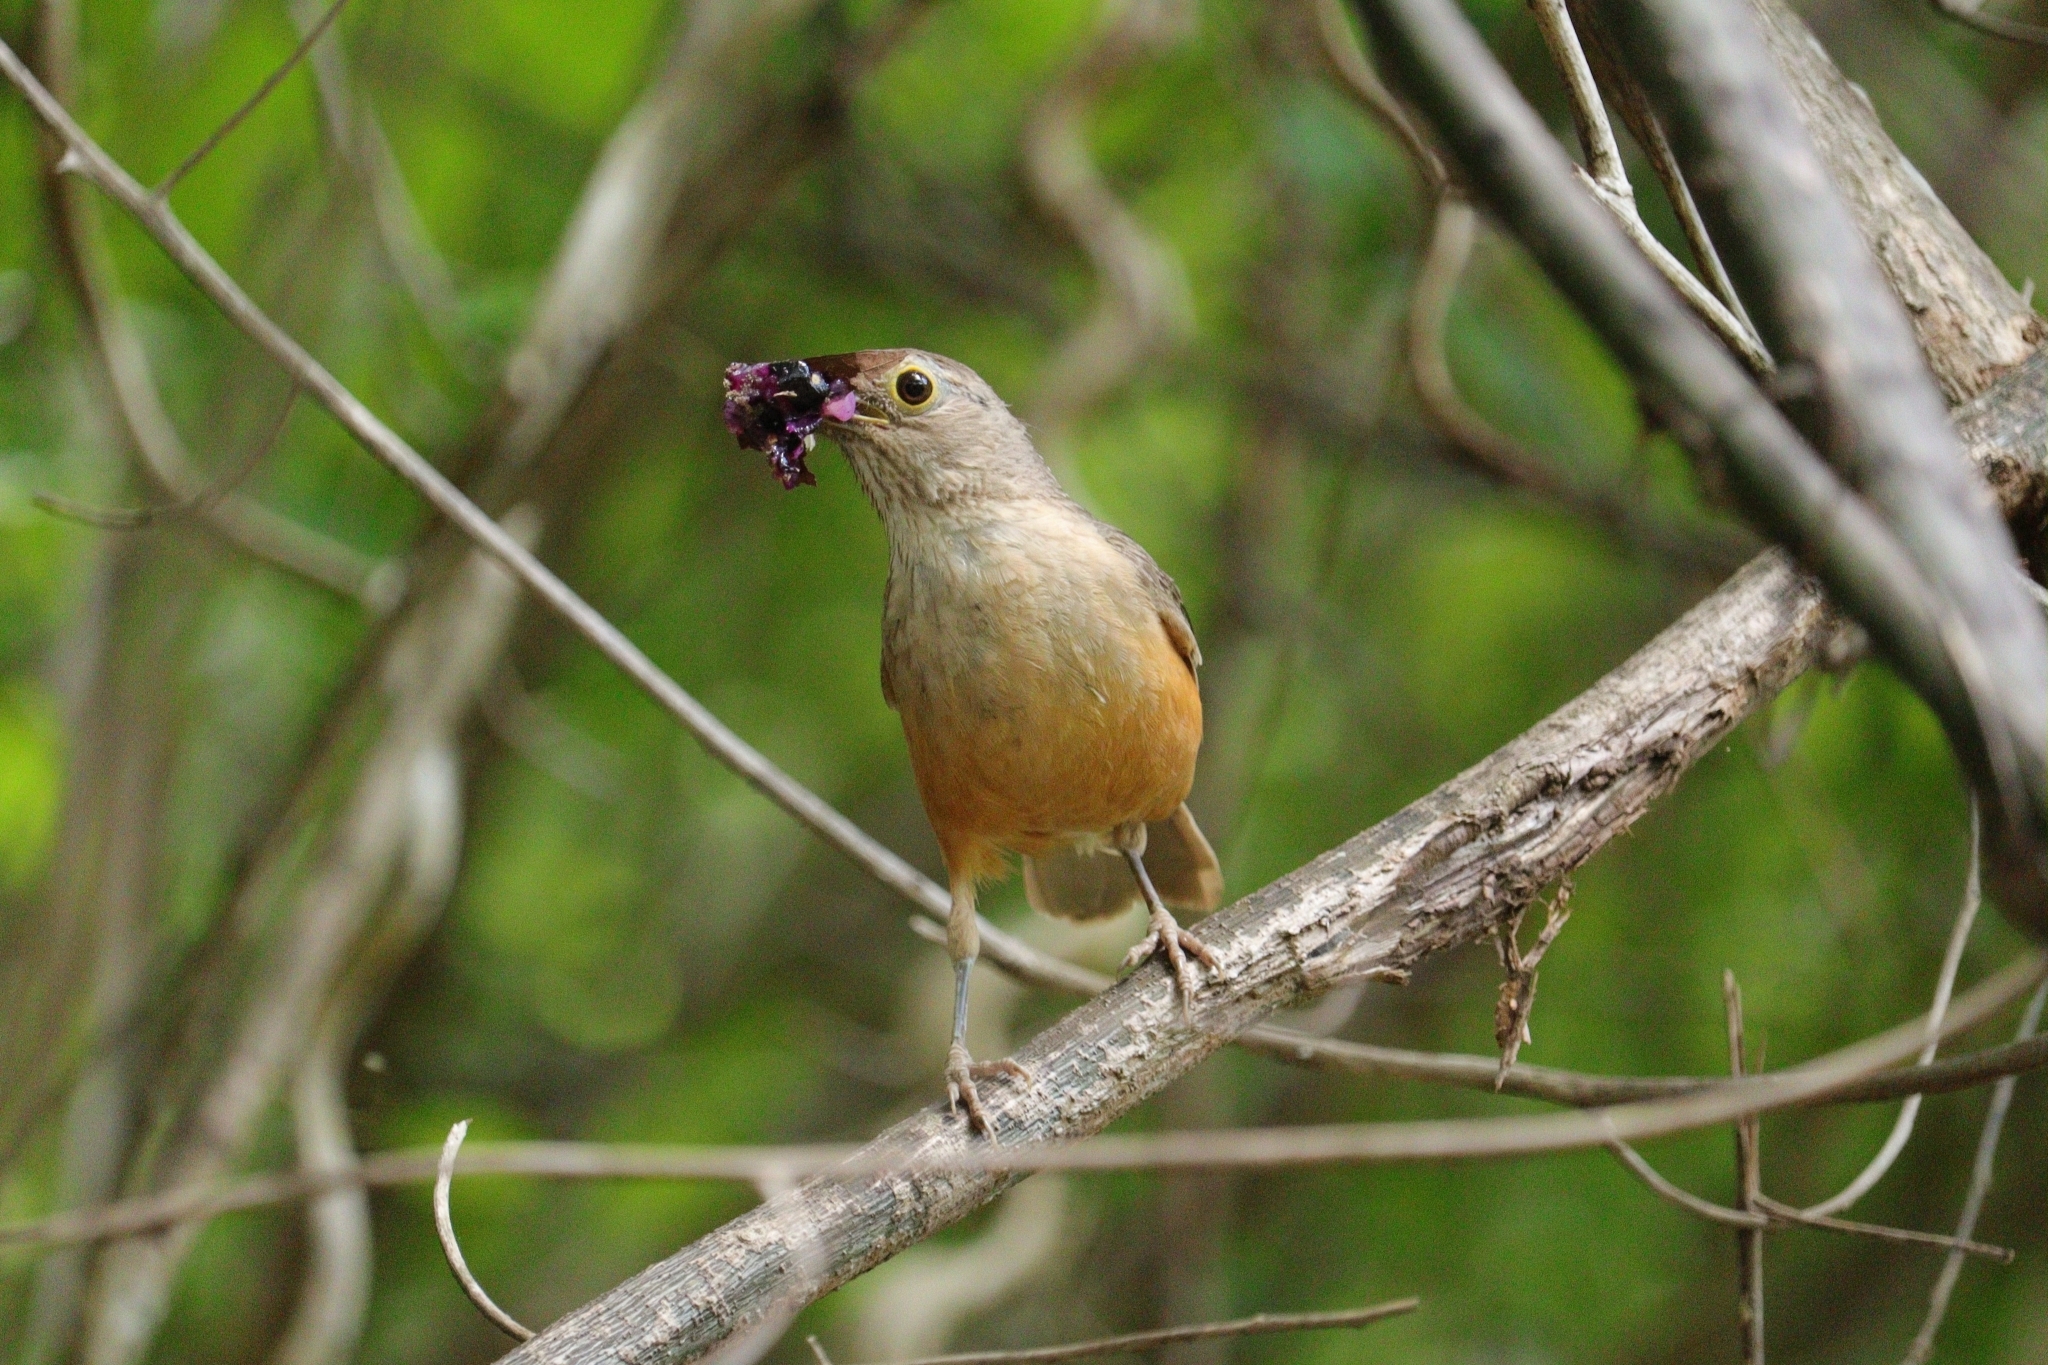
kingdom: Animalia
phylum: Chordata
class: Aves
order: Passeriformes
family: Turdidae
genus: Turdus
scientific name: Turdus rufiventris
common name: Rufous-bellied thrush
